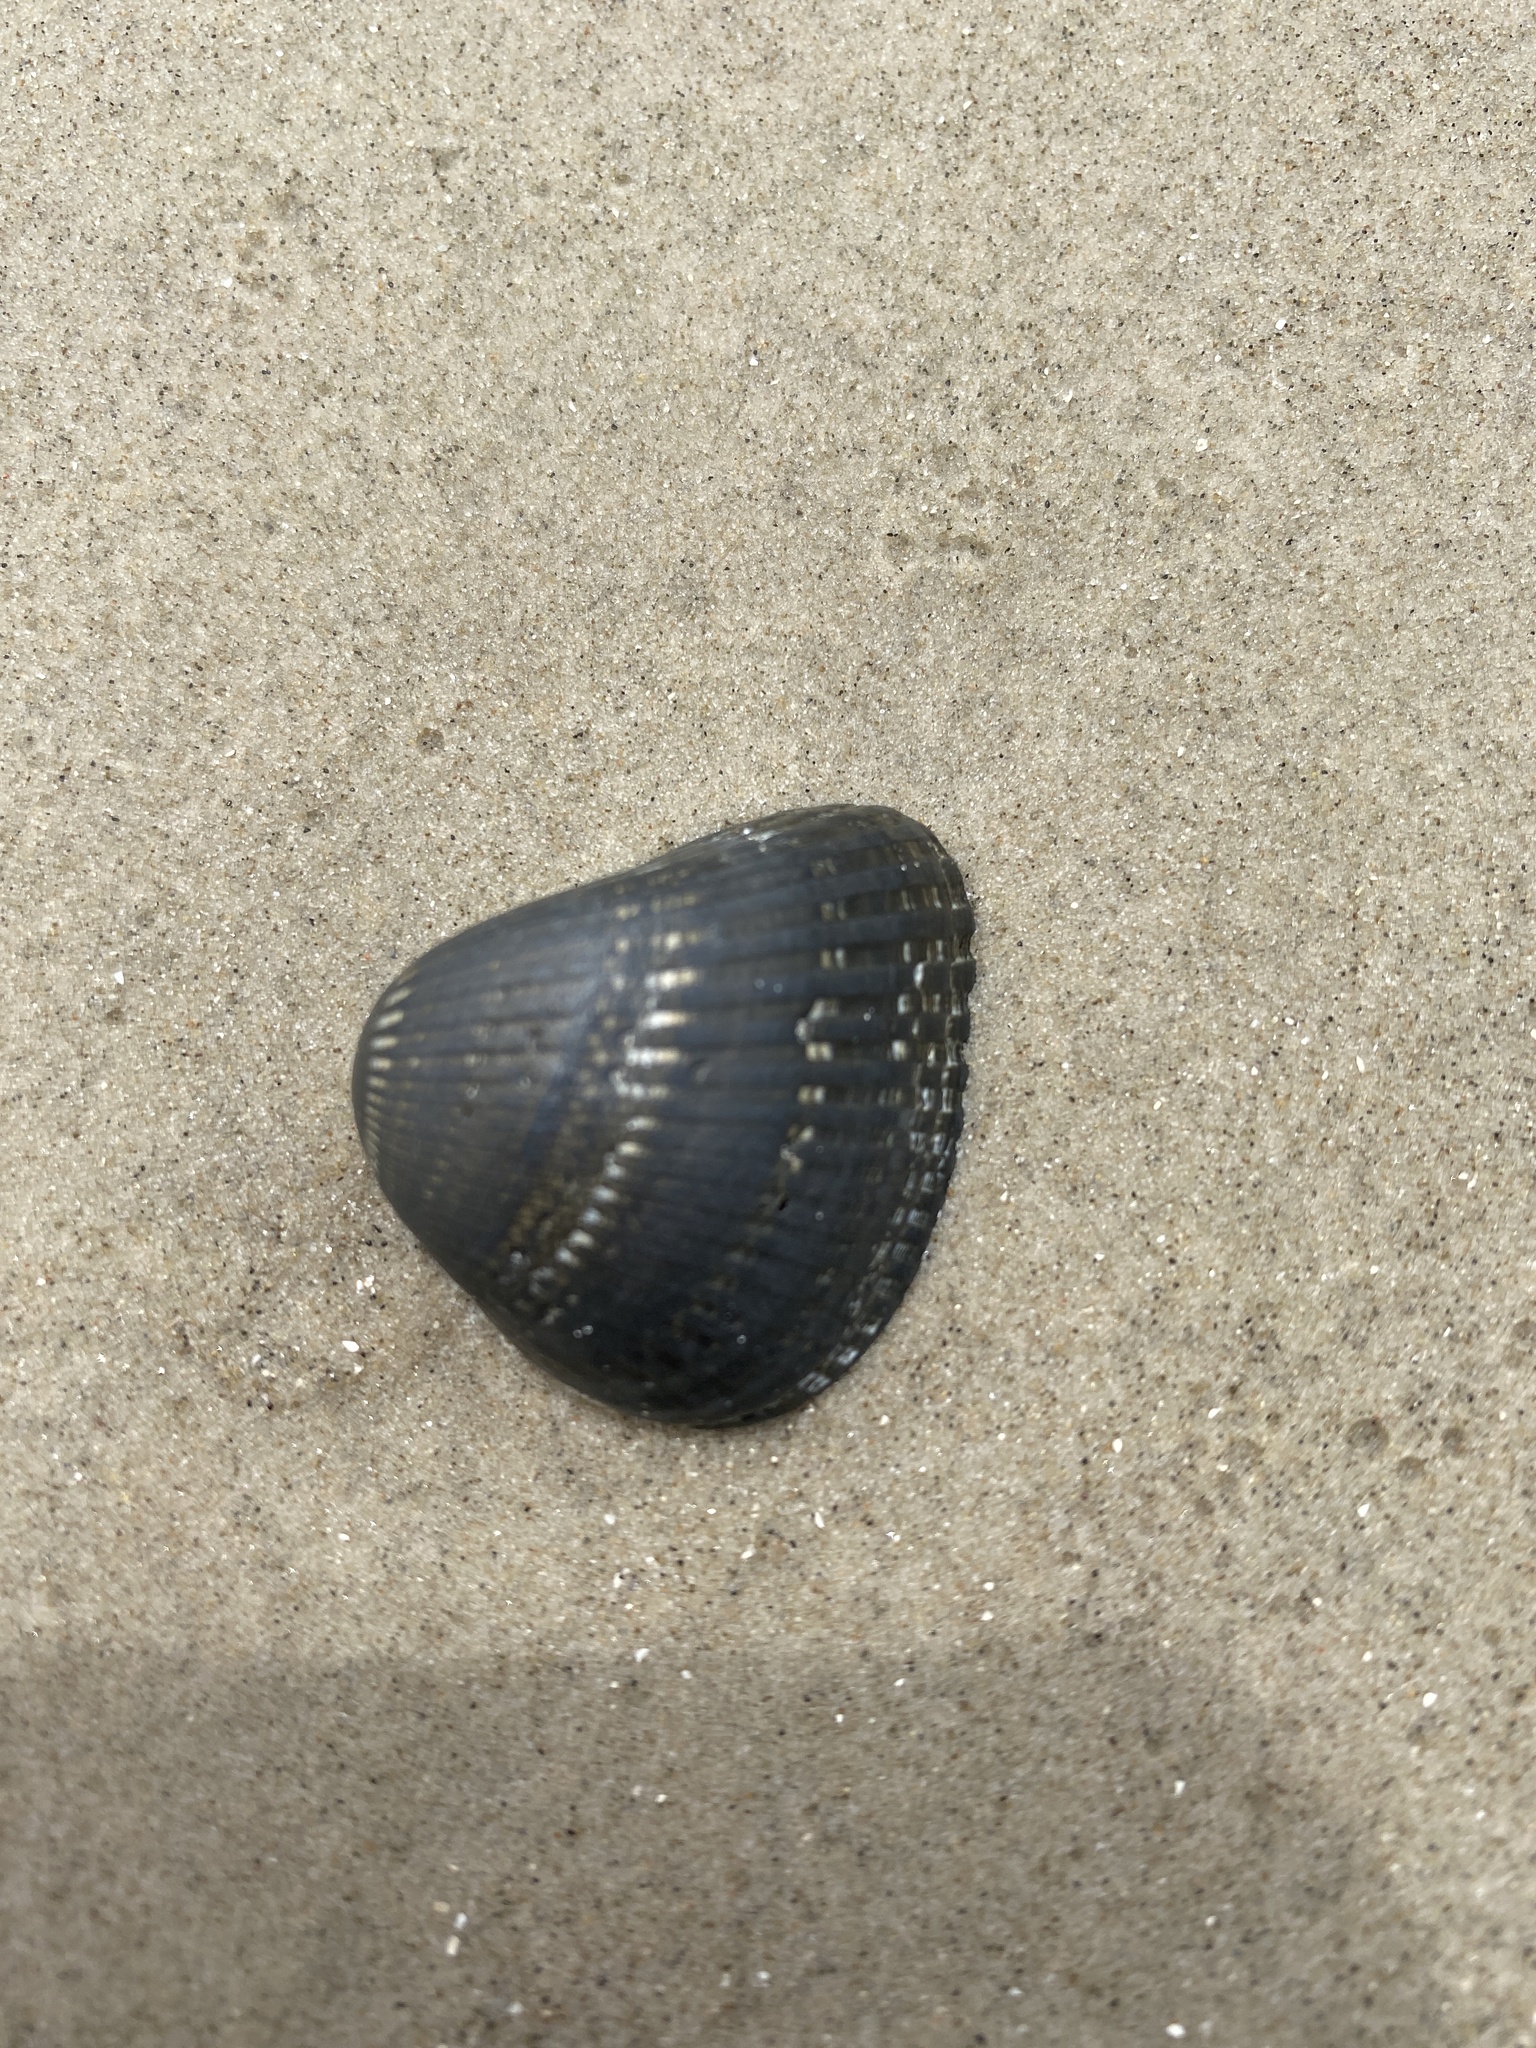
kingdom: Animalia
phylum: Mollusca
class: Bivalvia
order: Arcida
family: Noetiidae
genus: Noetia
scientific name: Noetia ponderosa
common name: Ponderous ark
